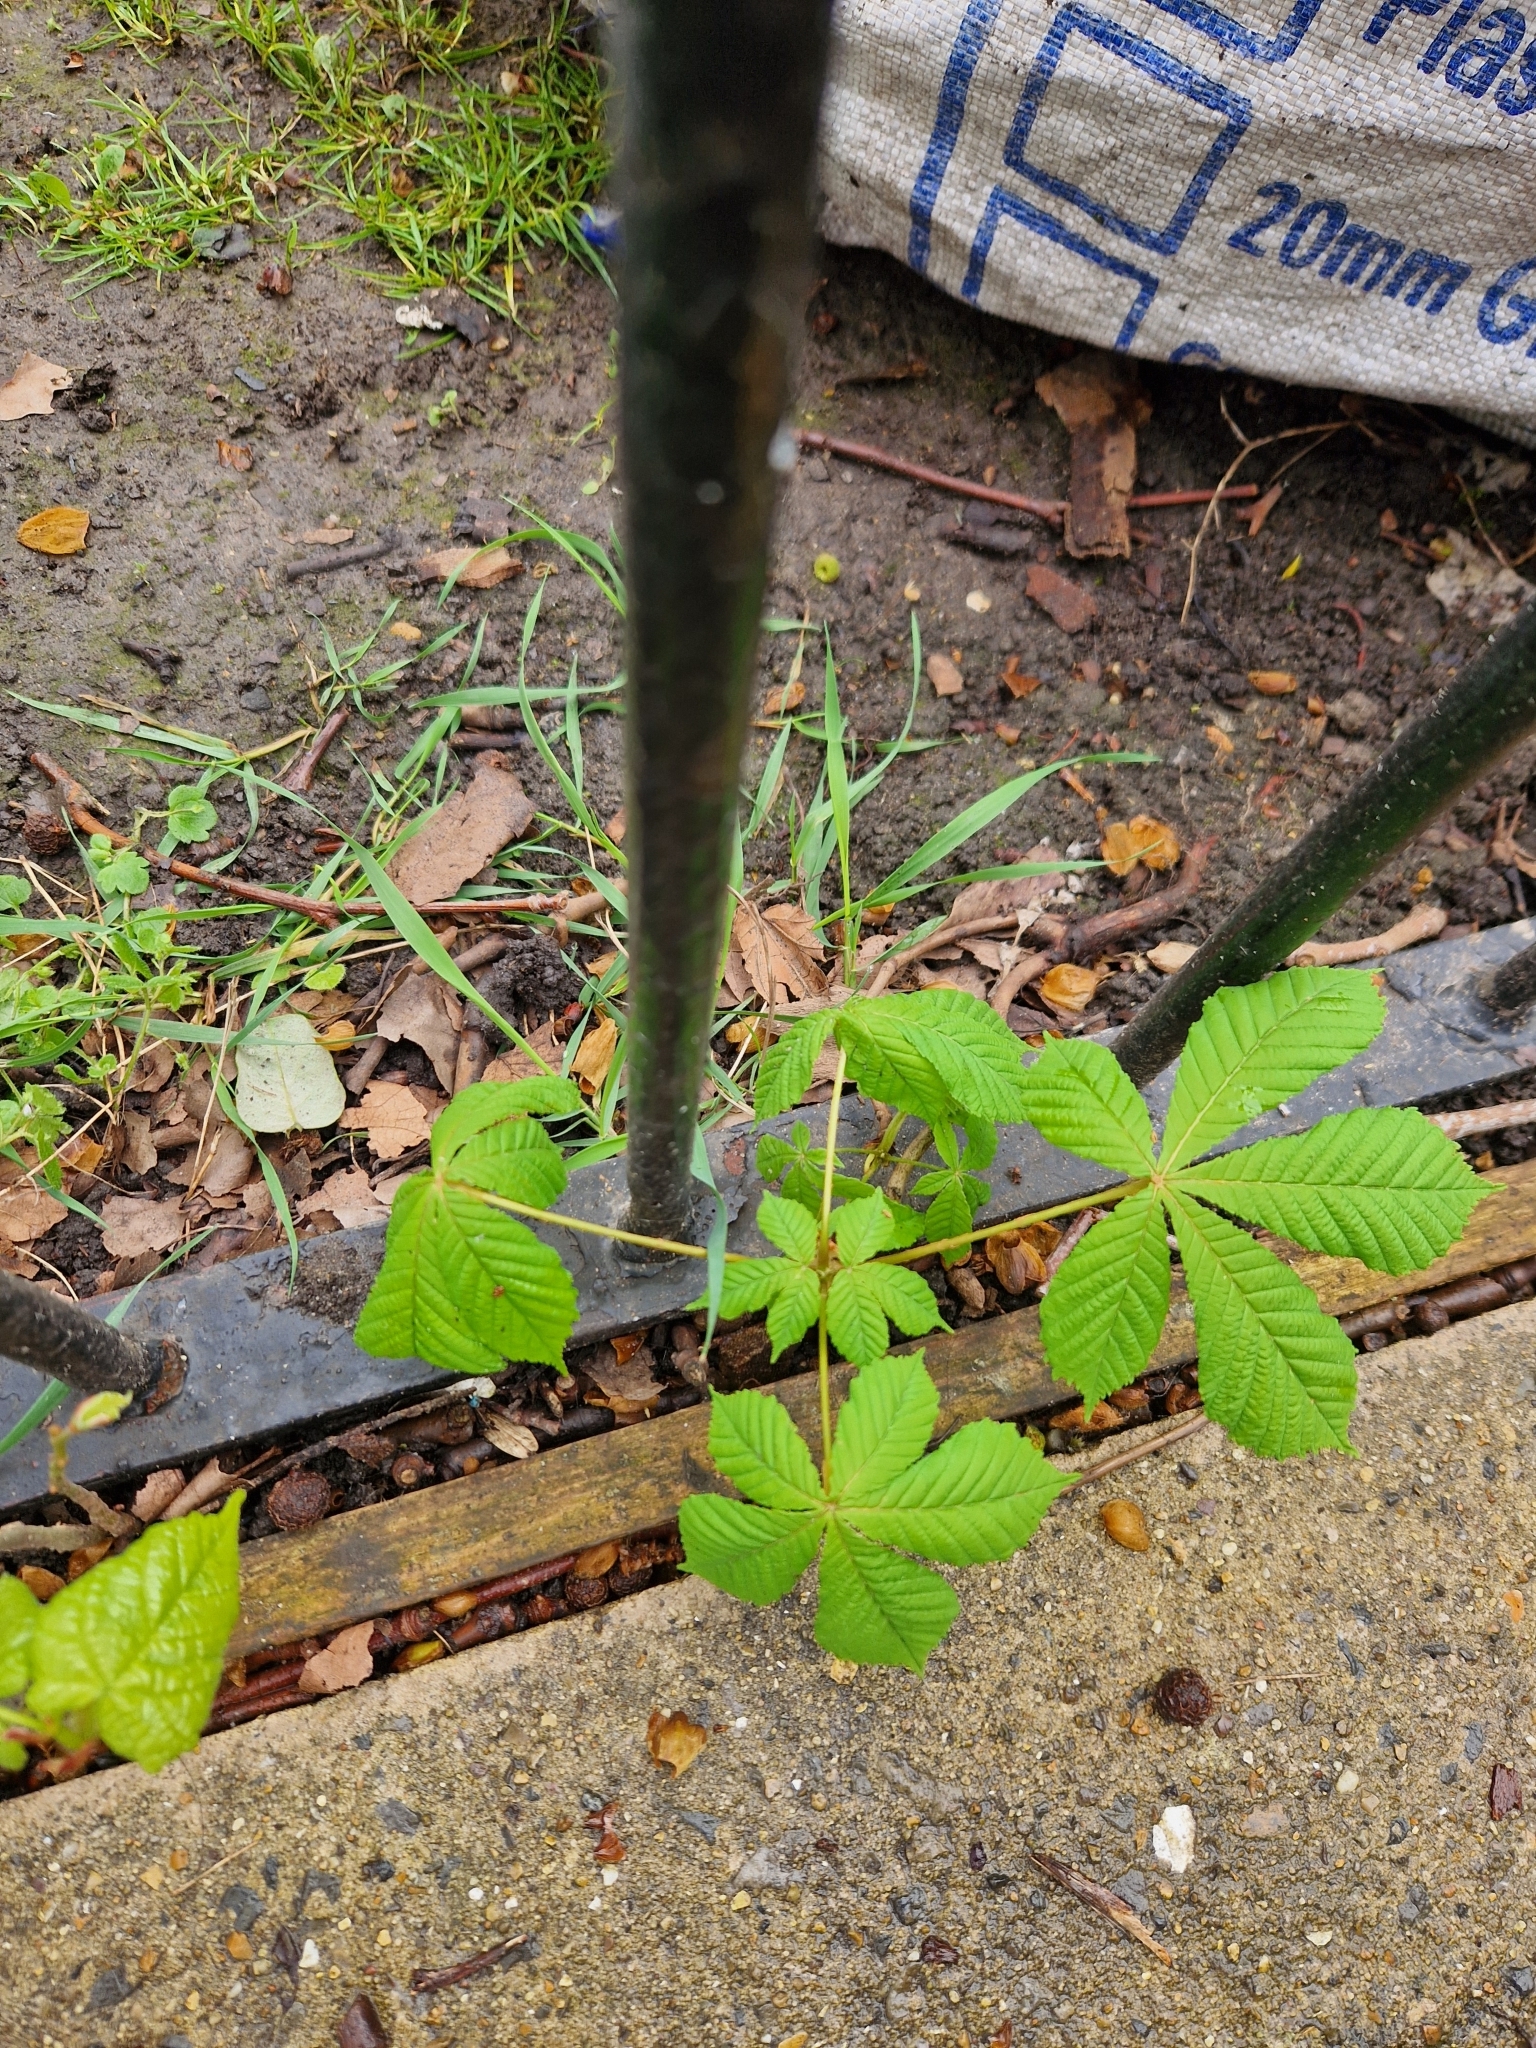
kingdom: Plantae
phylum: Tracheophyta
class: Magnoliopsida
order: Sapindales
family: Sapindaceae
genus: Aesculus
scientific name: Aesculus hippocastanum
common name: Horse-chestnut
